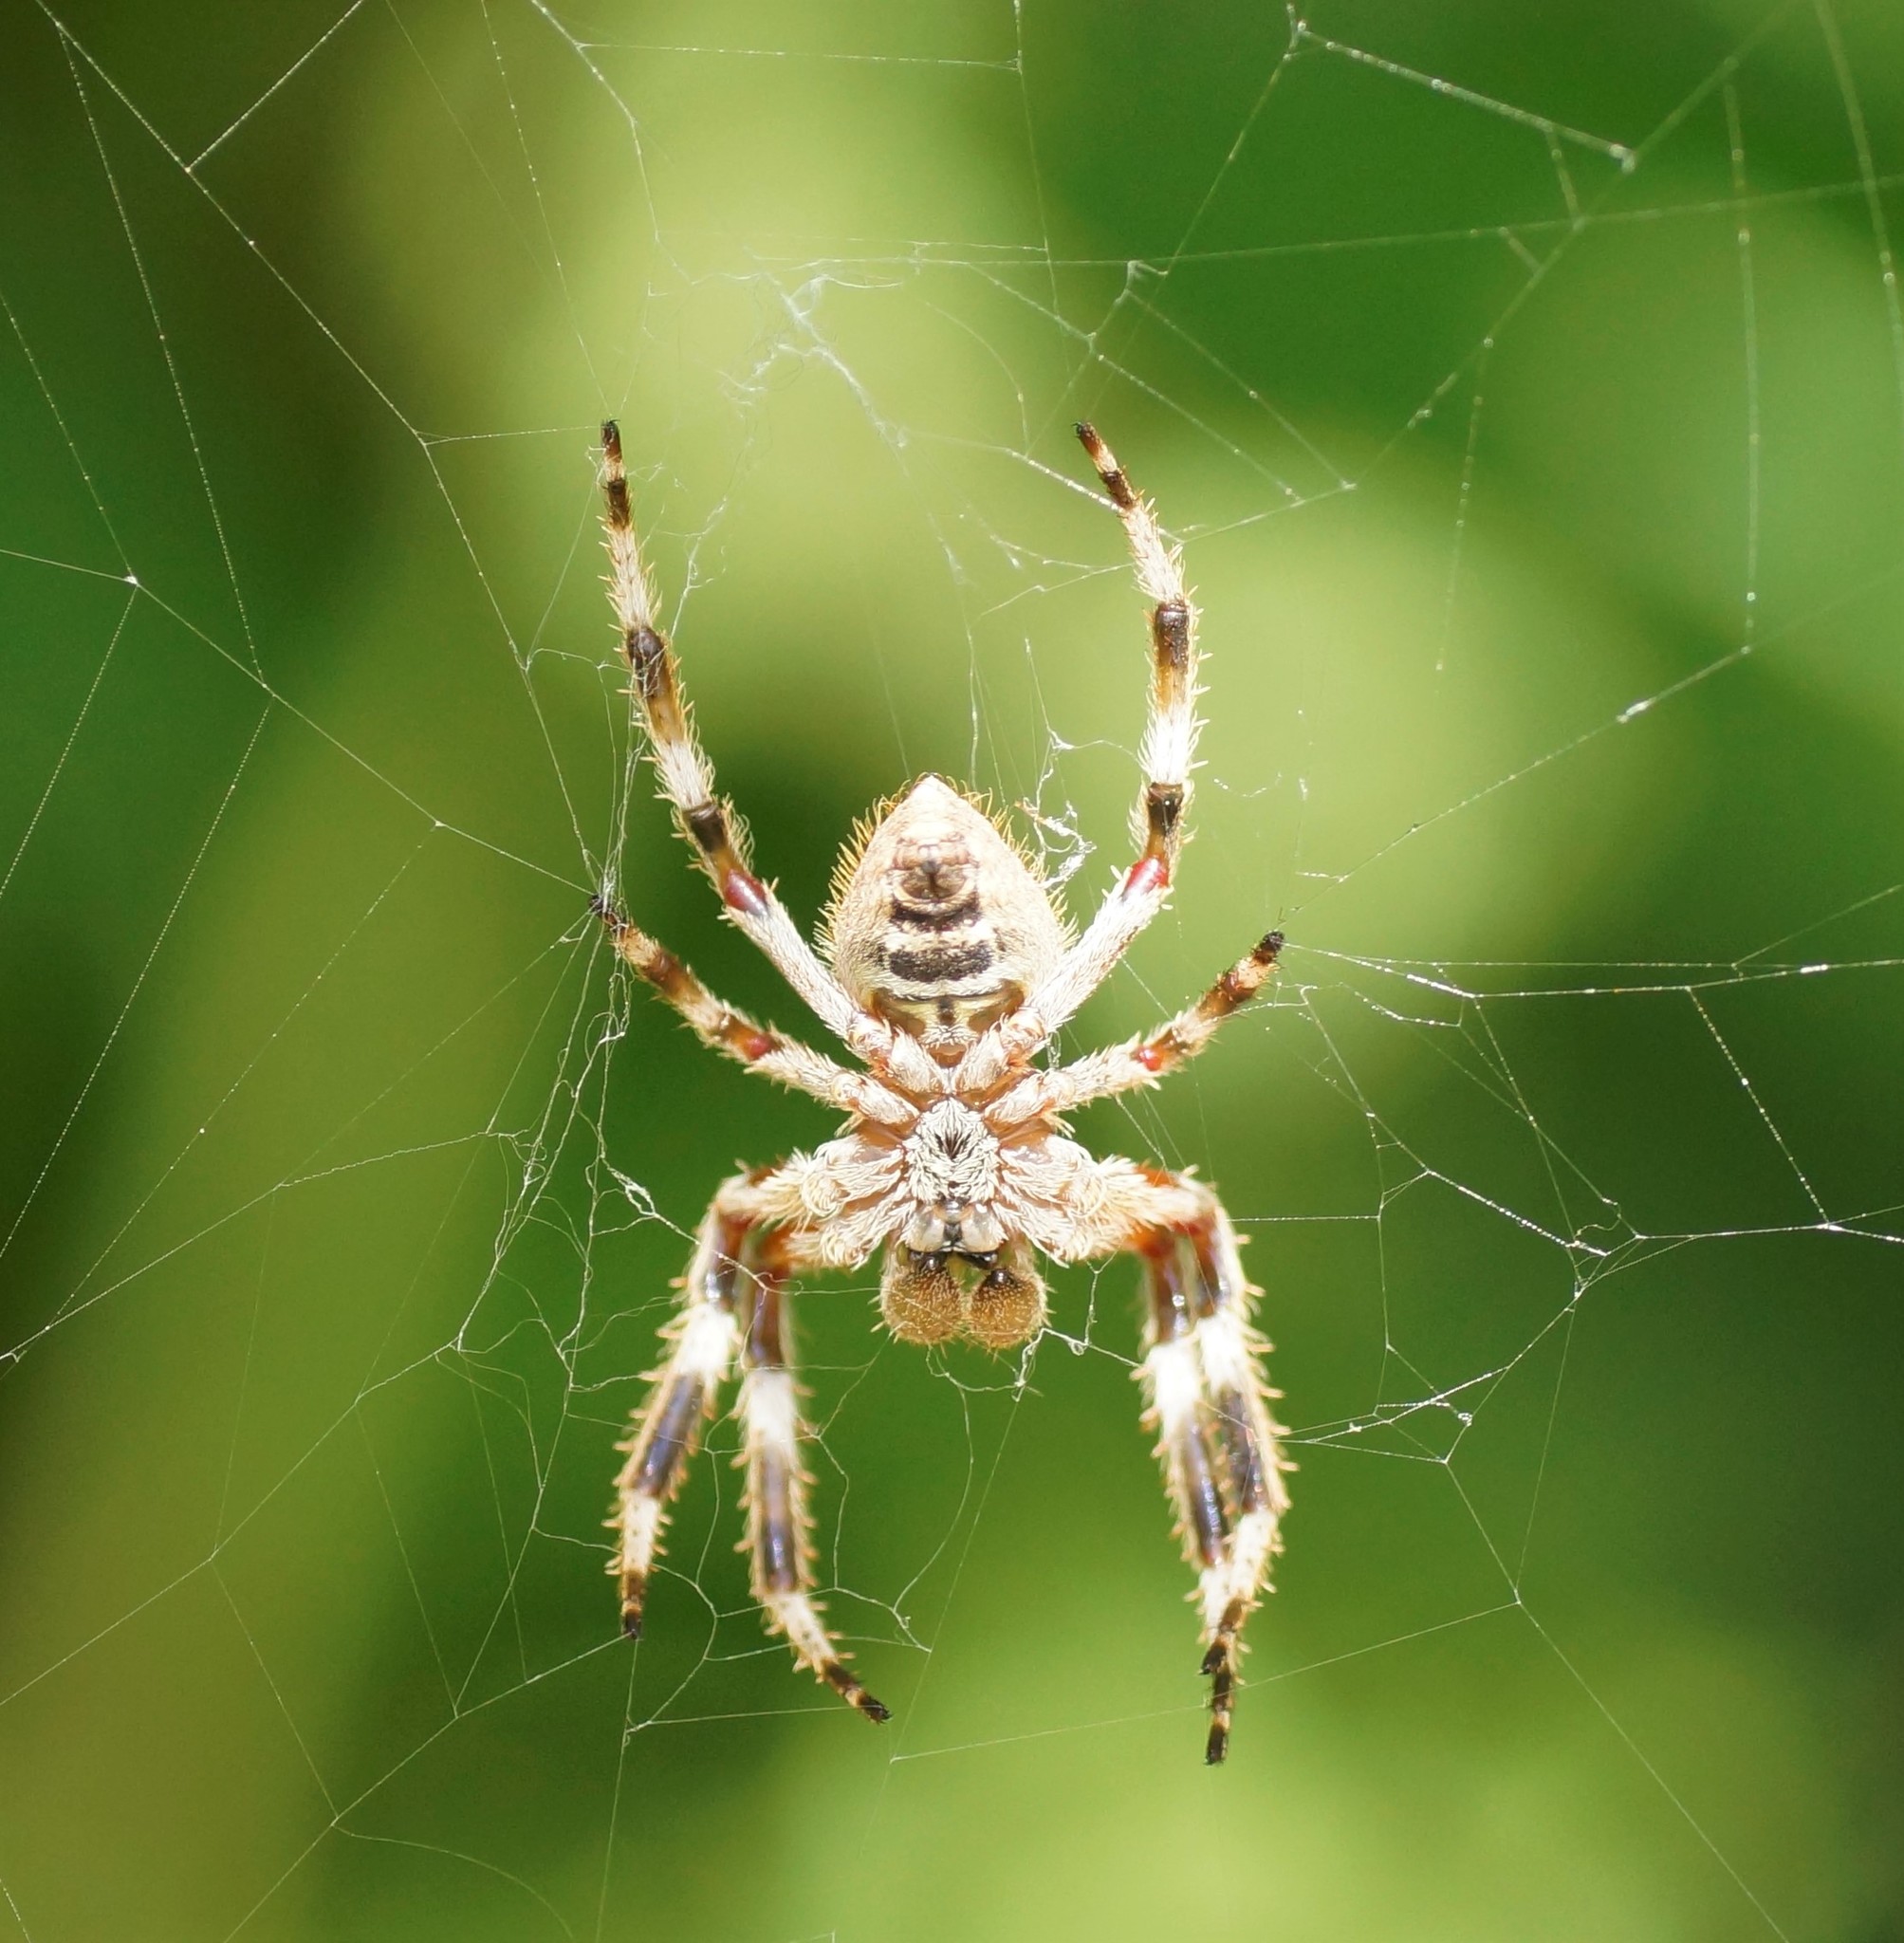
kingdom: Animalia
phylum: Arthropoda
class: Arachnida
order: Araneae
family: Araneidae
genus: Hortophora
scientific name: Hortophora biapicata
